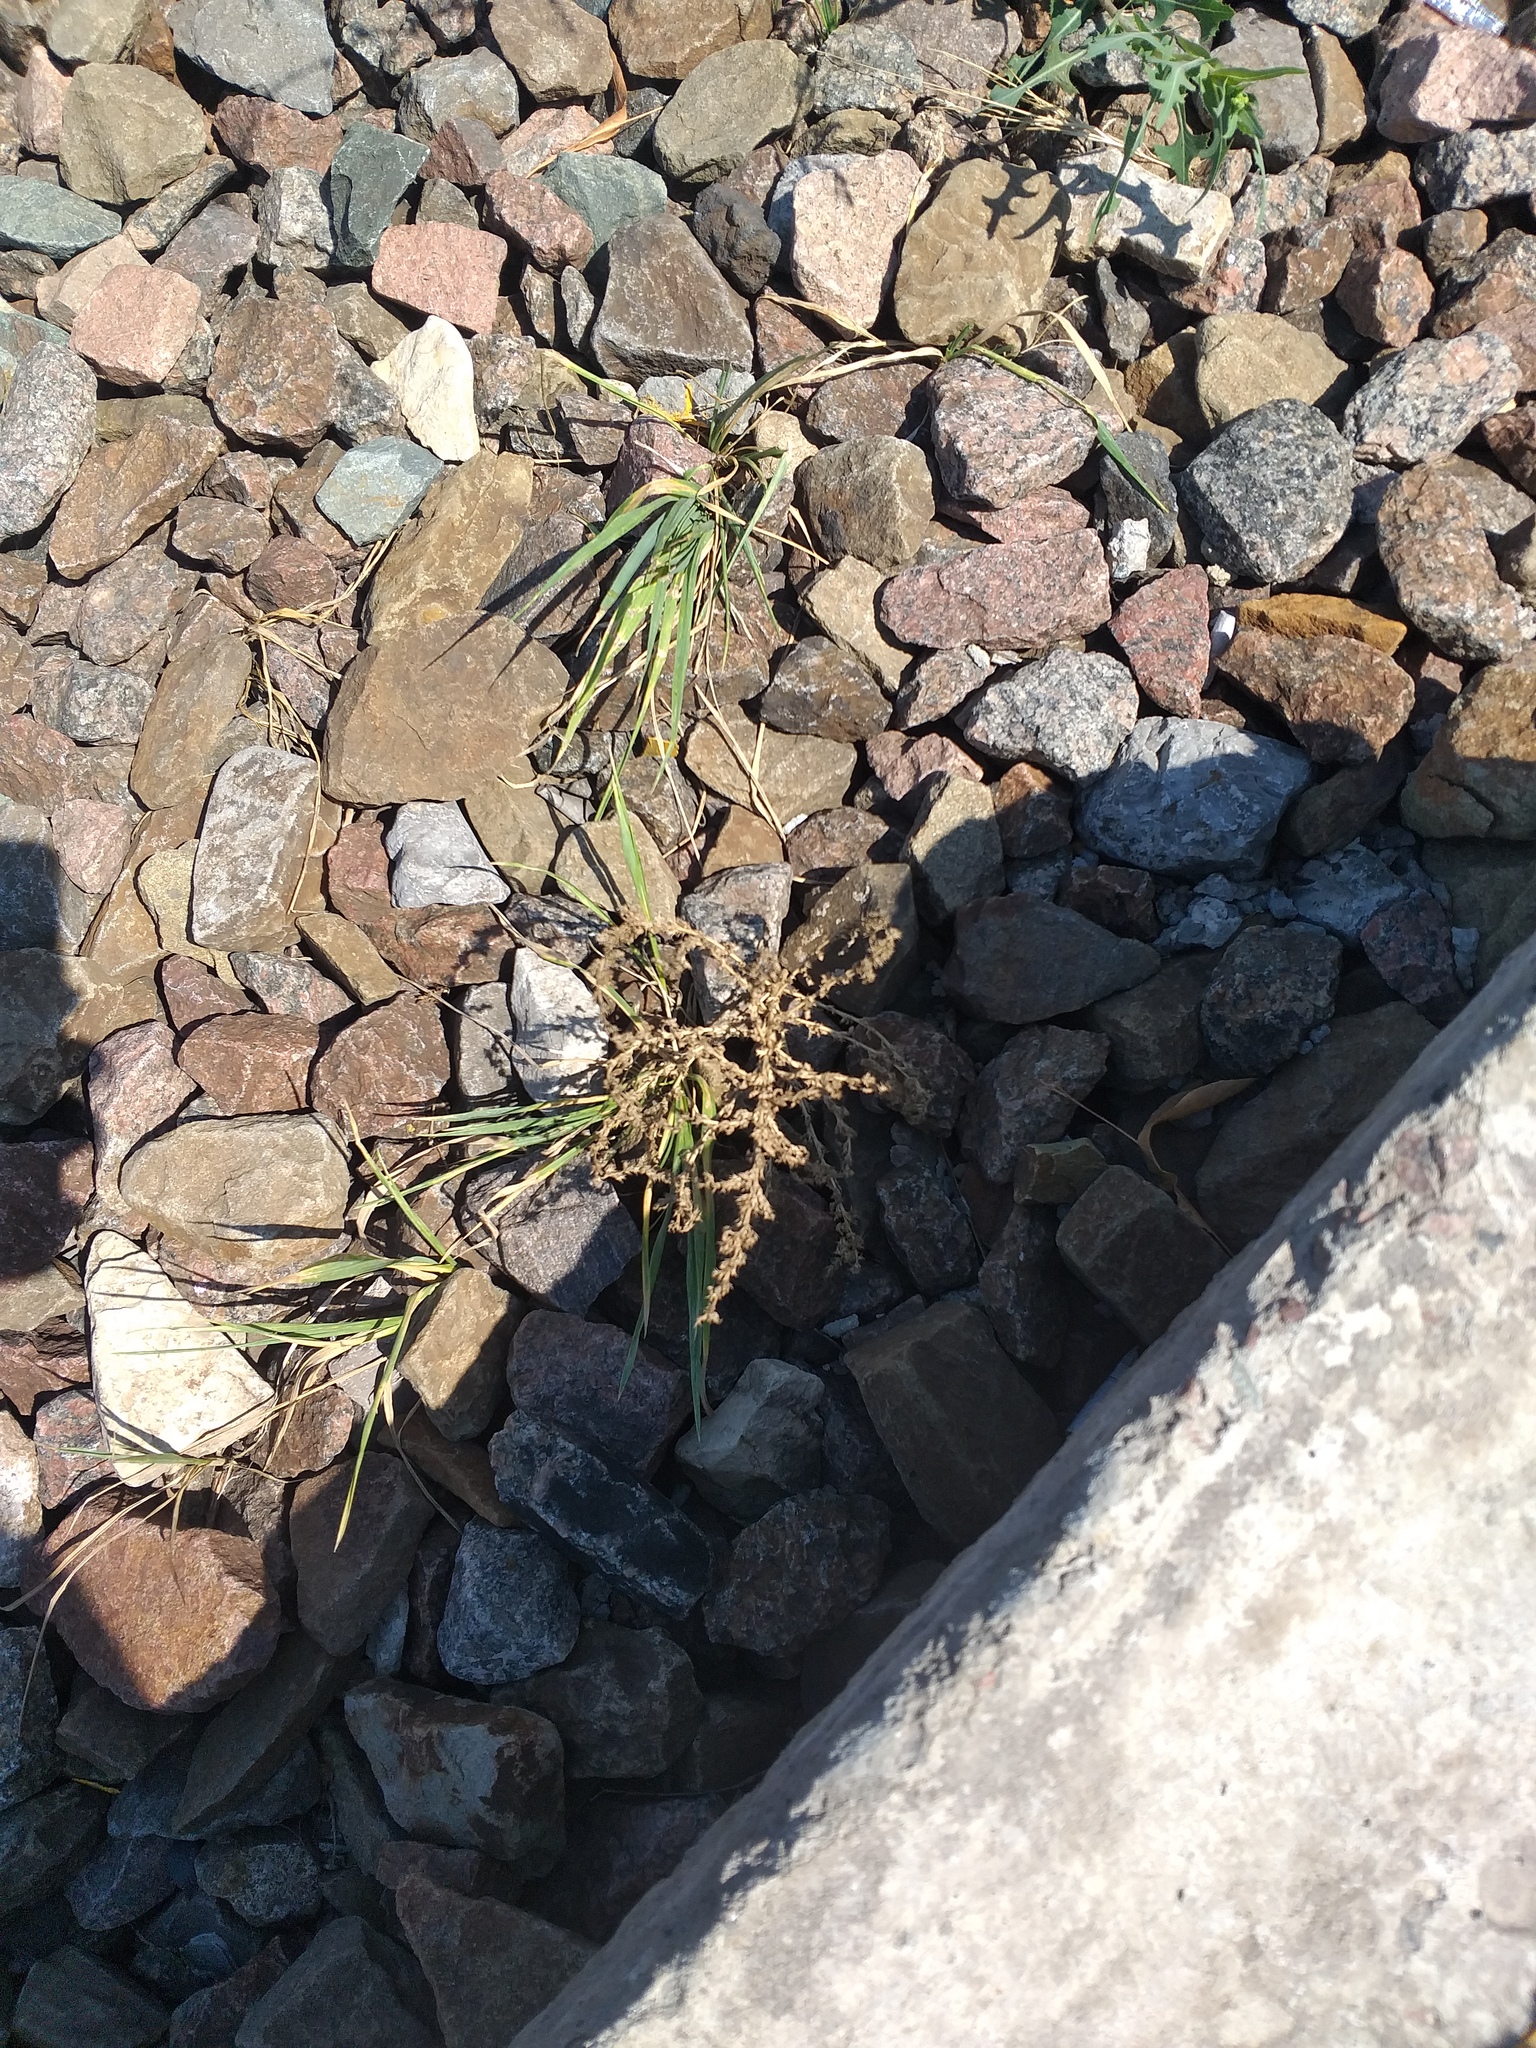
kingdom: Plantae
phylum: Tracheophyta
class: Magnoliopsida
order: Caryophyllales
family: Amaranthaceae
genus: Amaranthus
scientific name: Amaranthus albus
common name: White pigweed
